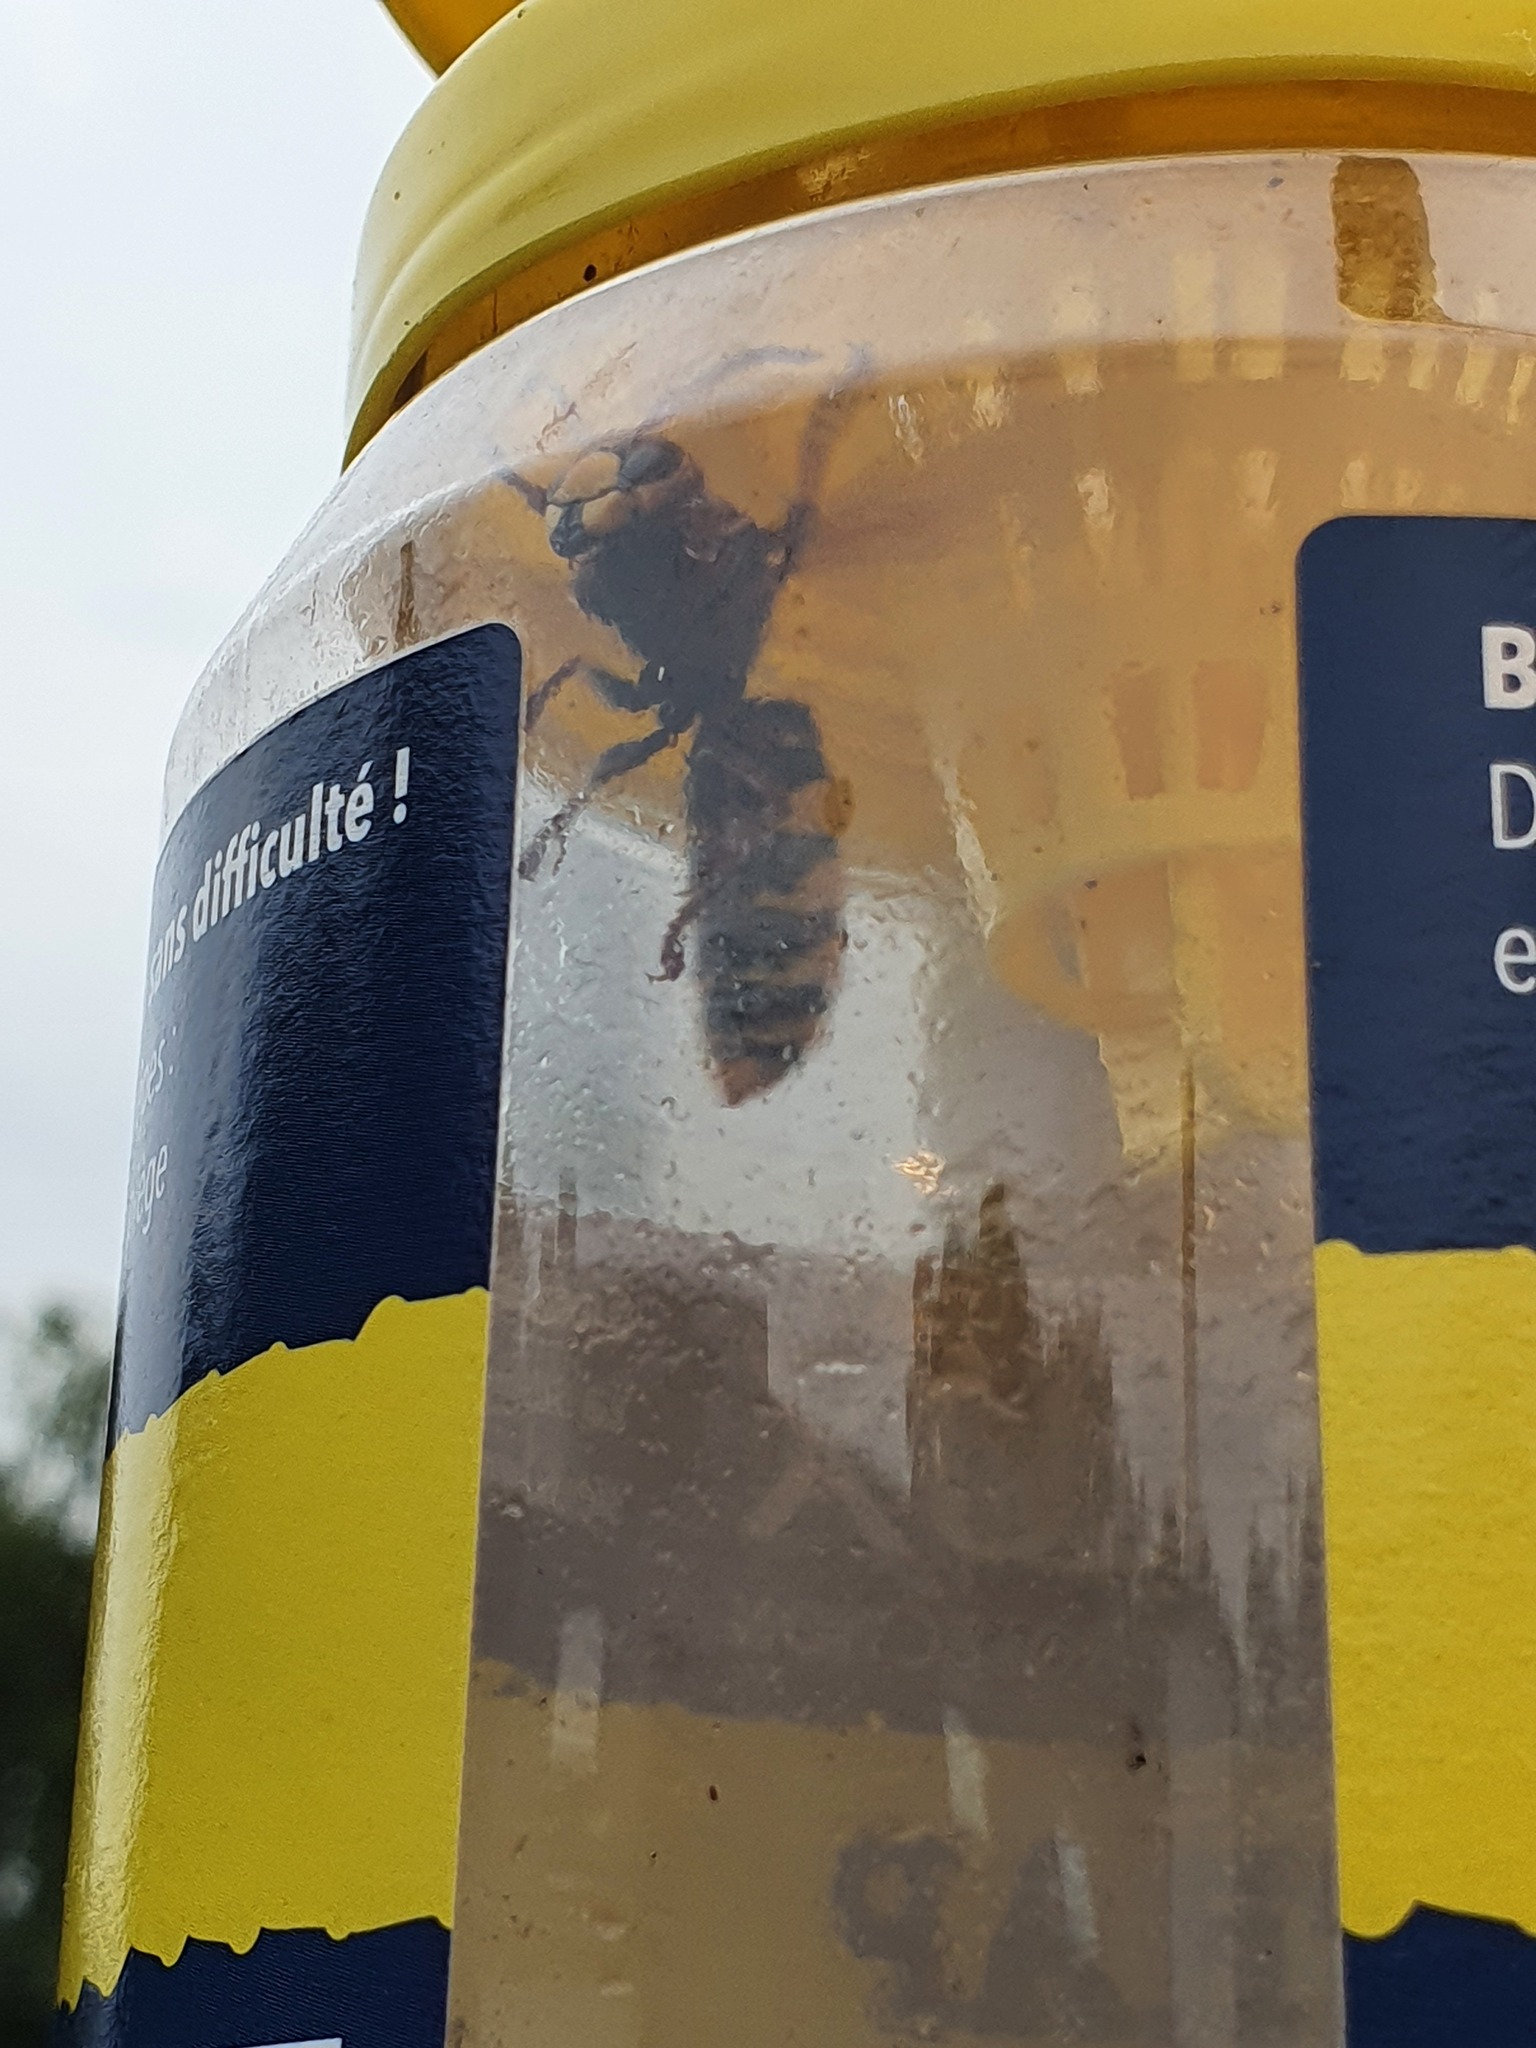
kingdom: Animalia
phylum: Arthropoda
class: Insecta
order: Hymenoptera
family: Vespidae
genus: Vespa
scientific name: Vespa crabro
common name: Hornet
